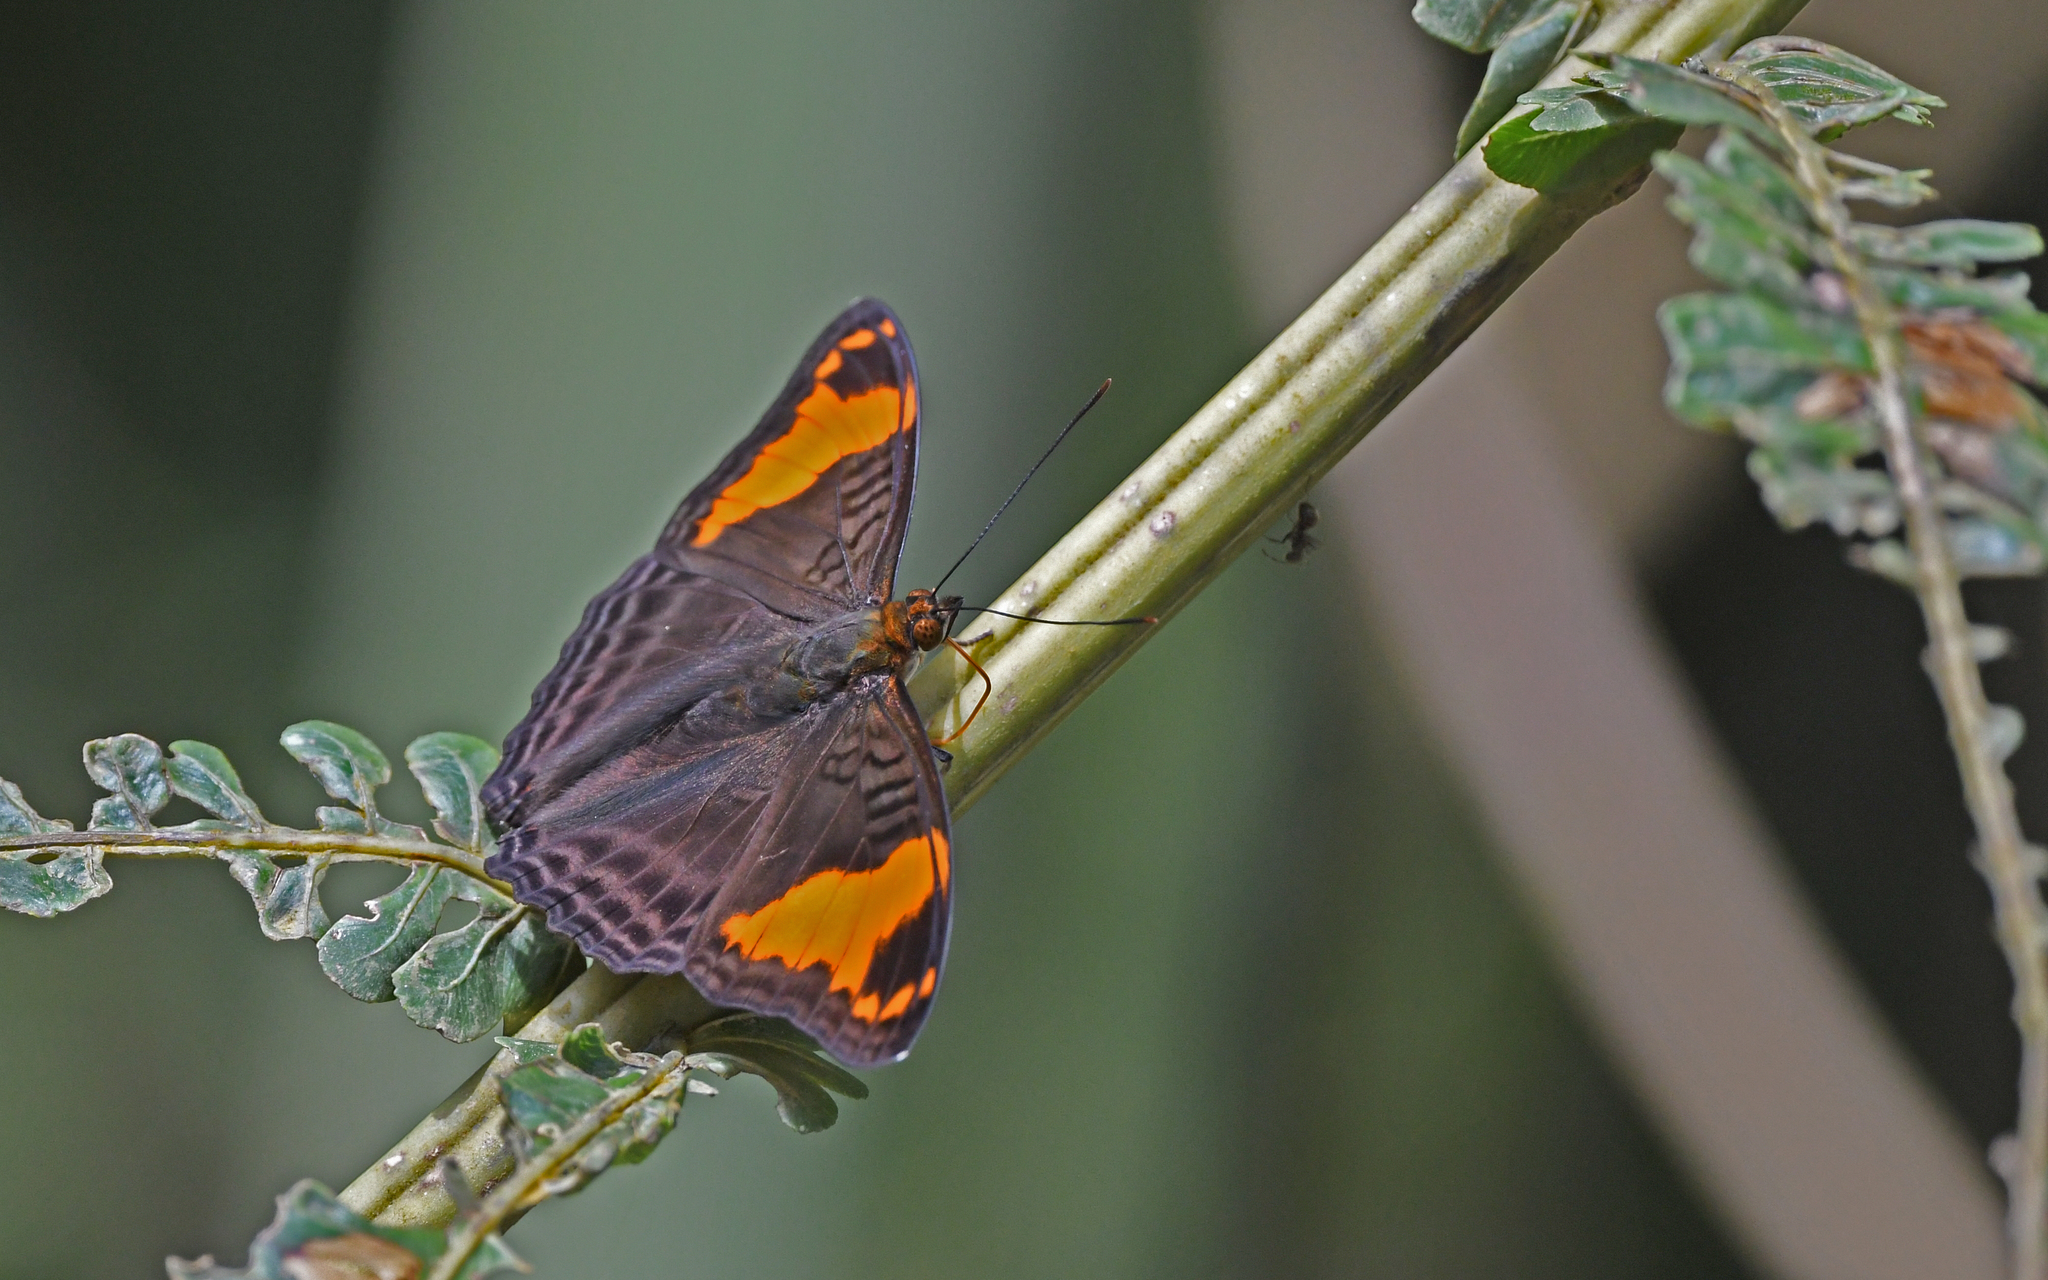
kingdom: Animalia
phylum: Arthropoda
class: Insecta
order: Lepidoptera
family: Nymphalidae
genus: Limenitis
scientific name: Limenitis ximena
